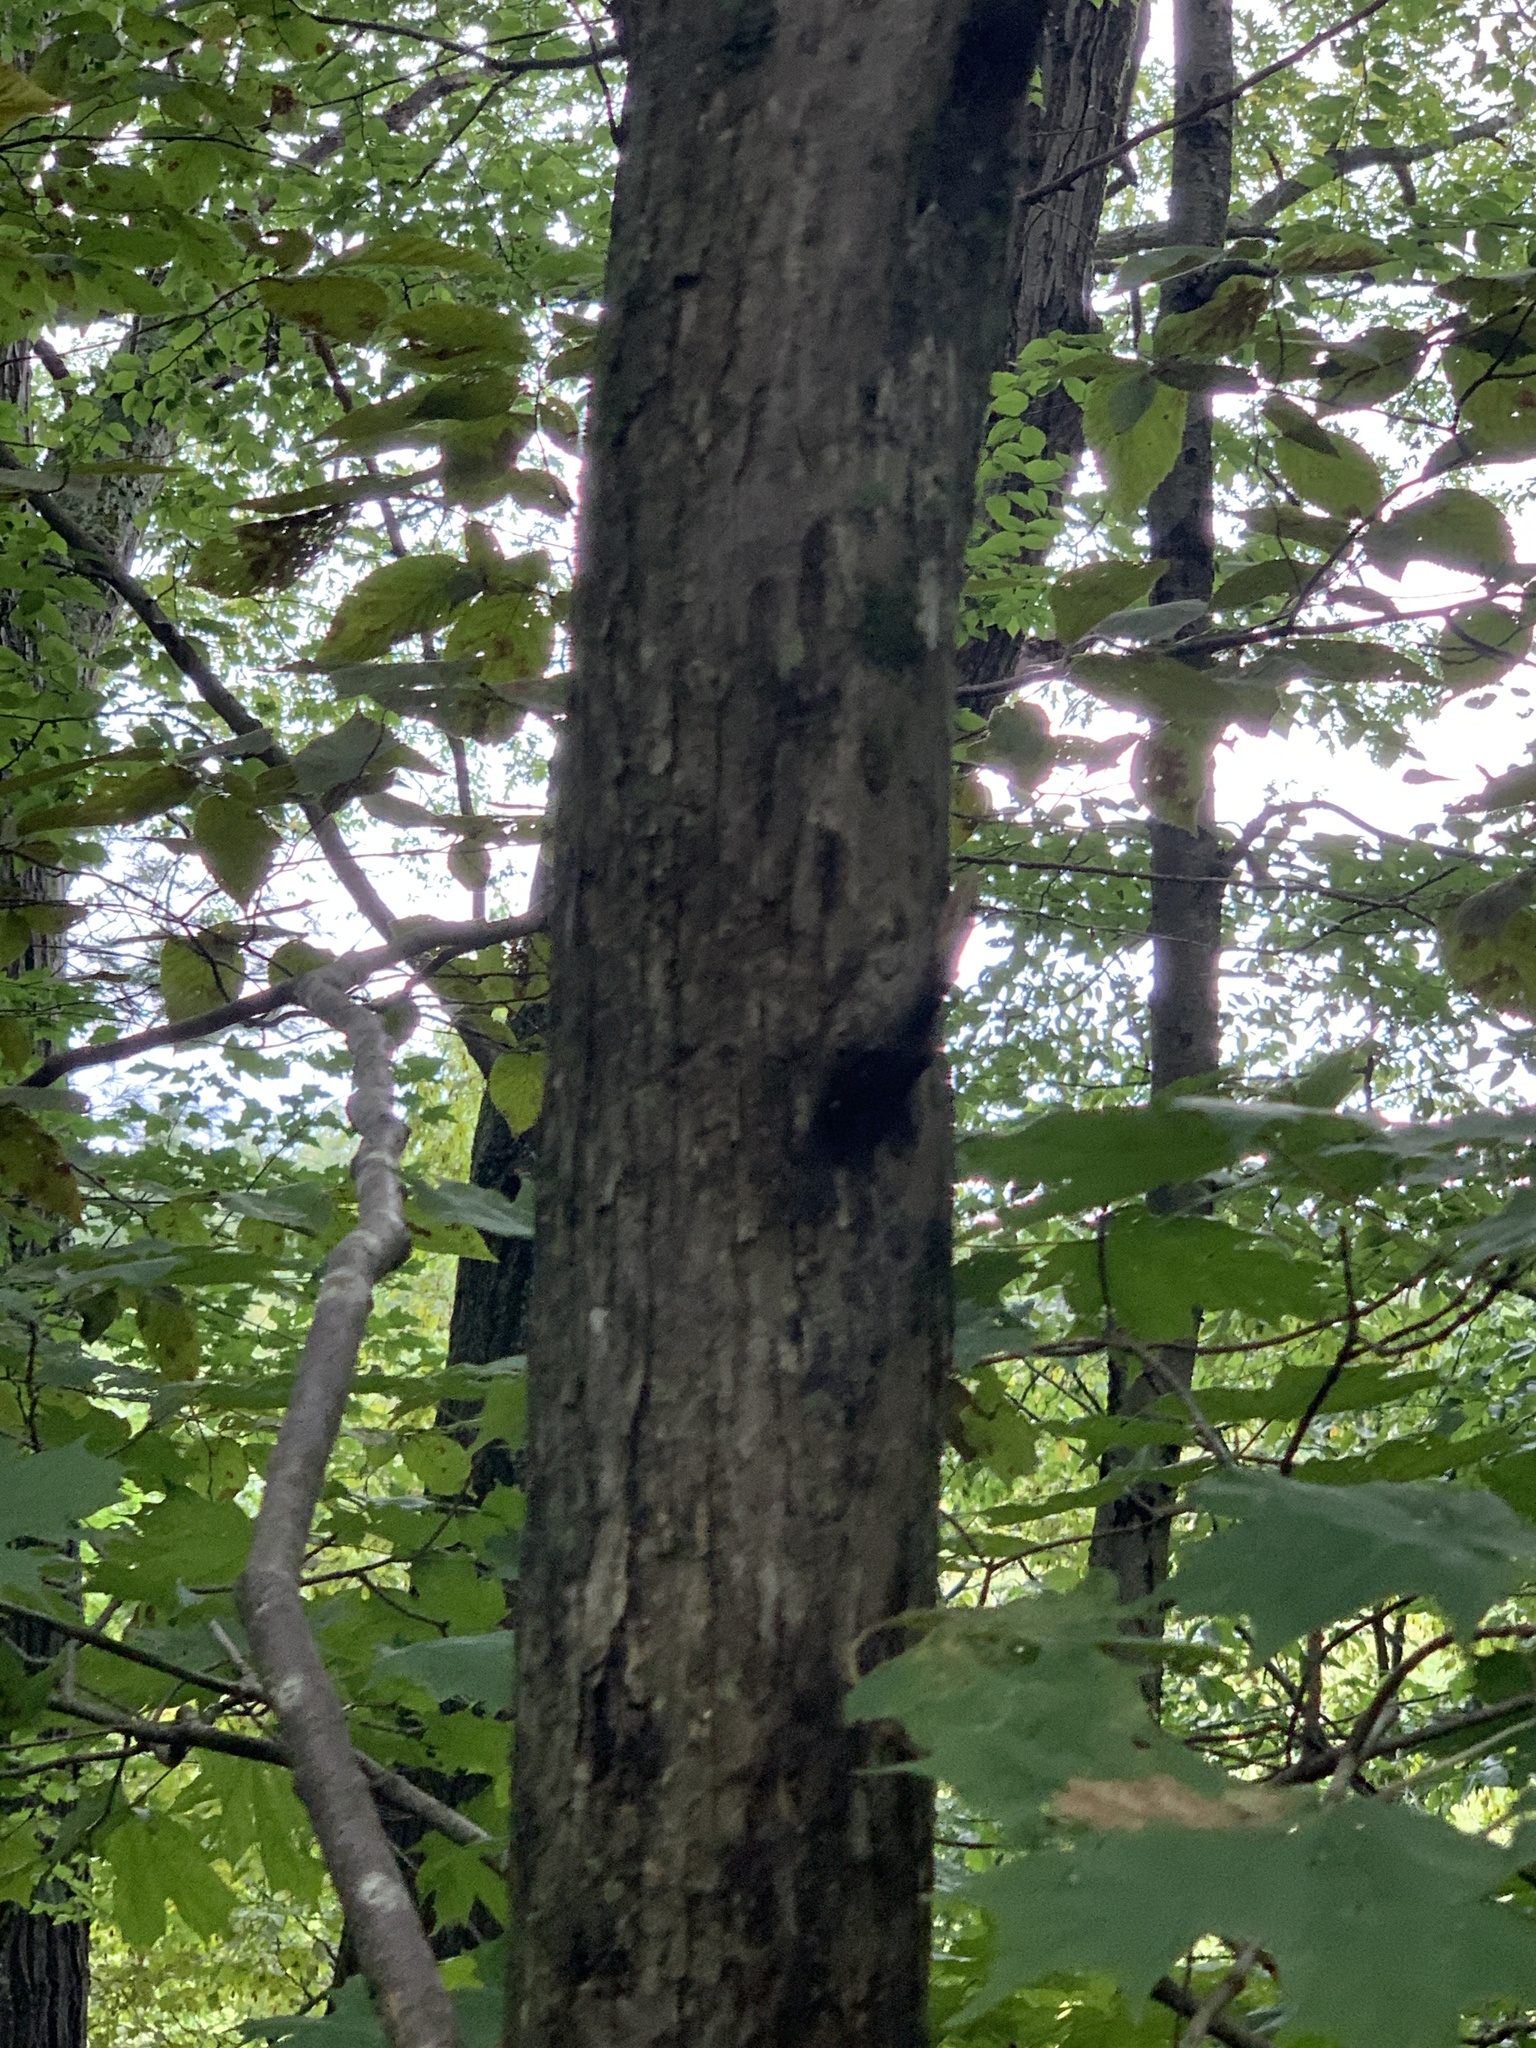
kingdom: Plantae
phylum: Tracheophyta
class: Magnoliopsida
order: Fagales
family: Betulaceae
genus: Ostrya
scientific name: Ostrya virginiana
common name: Ironwood
